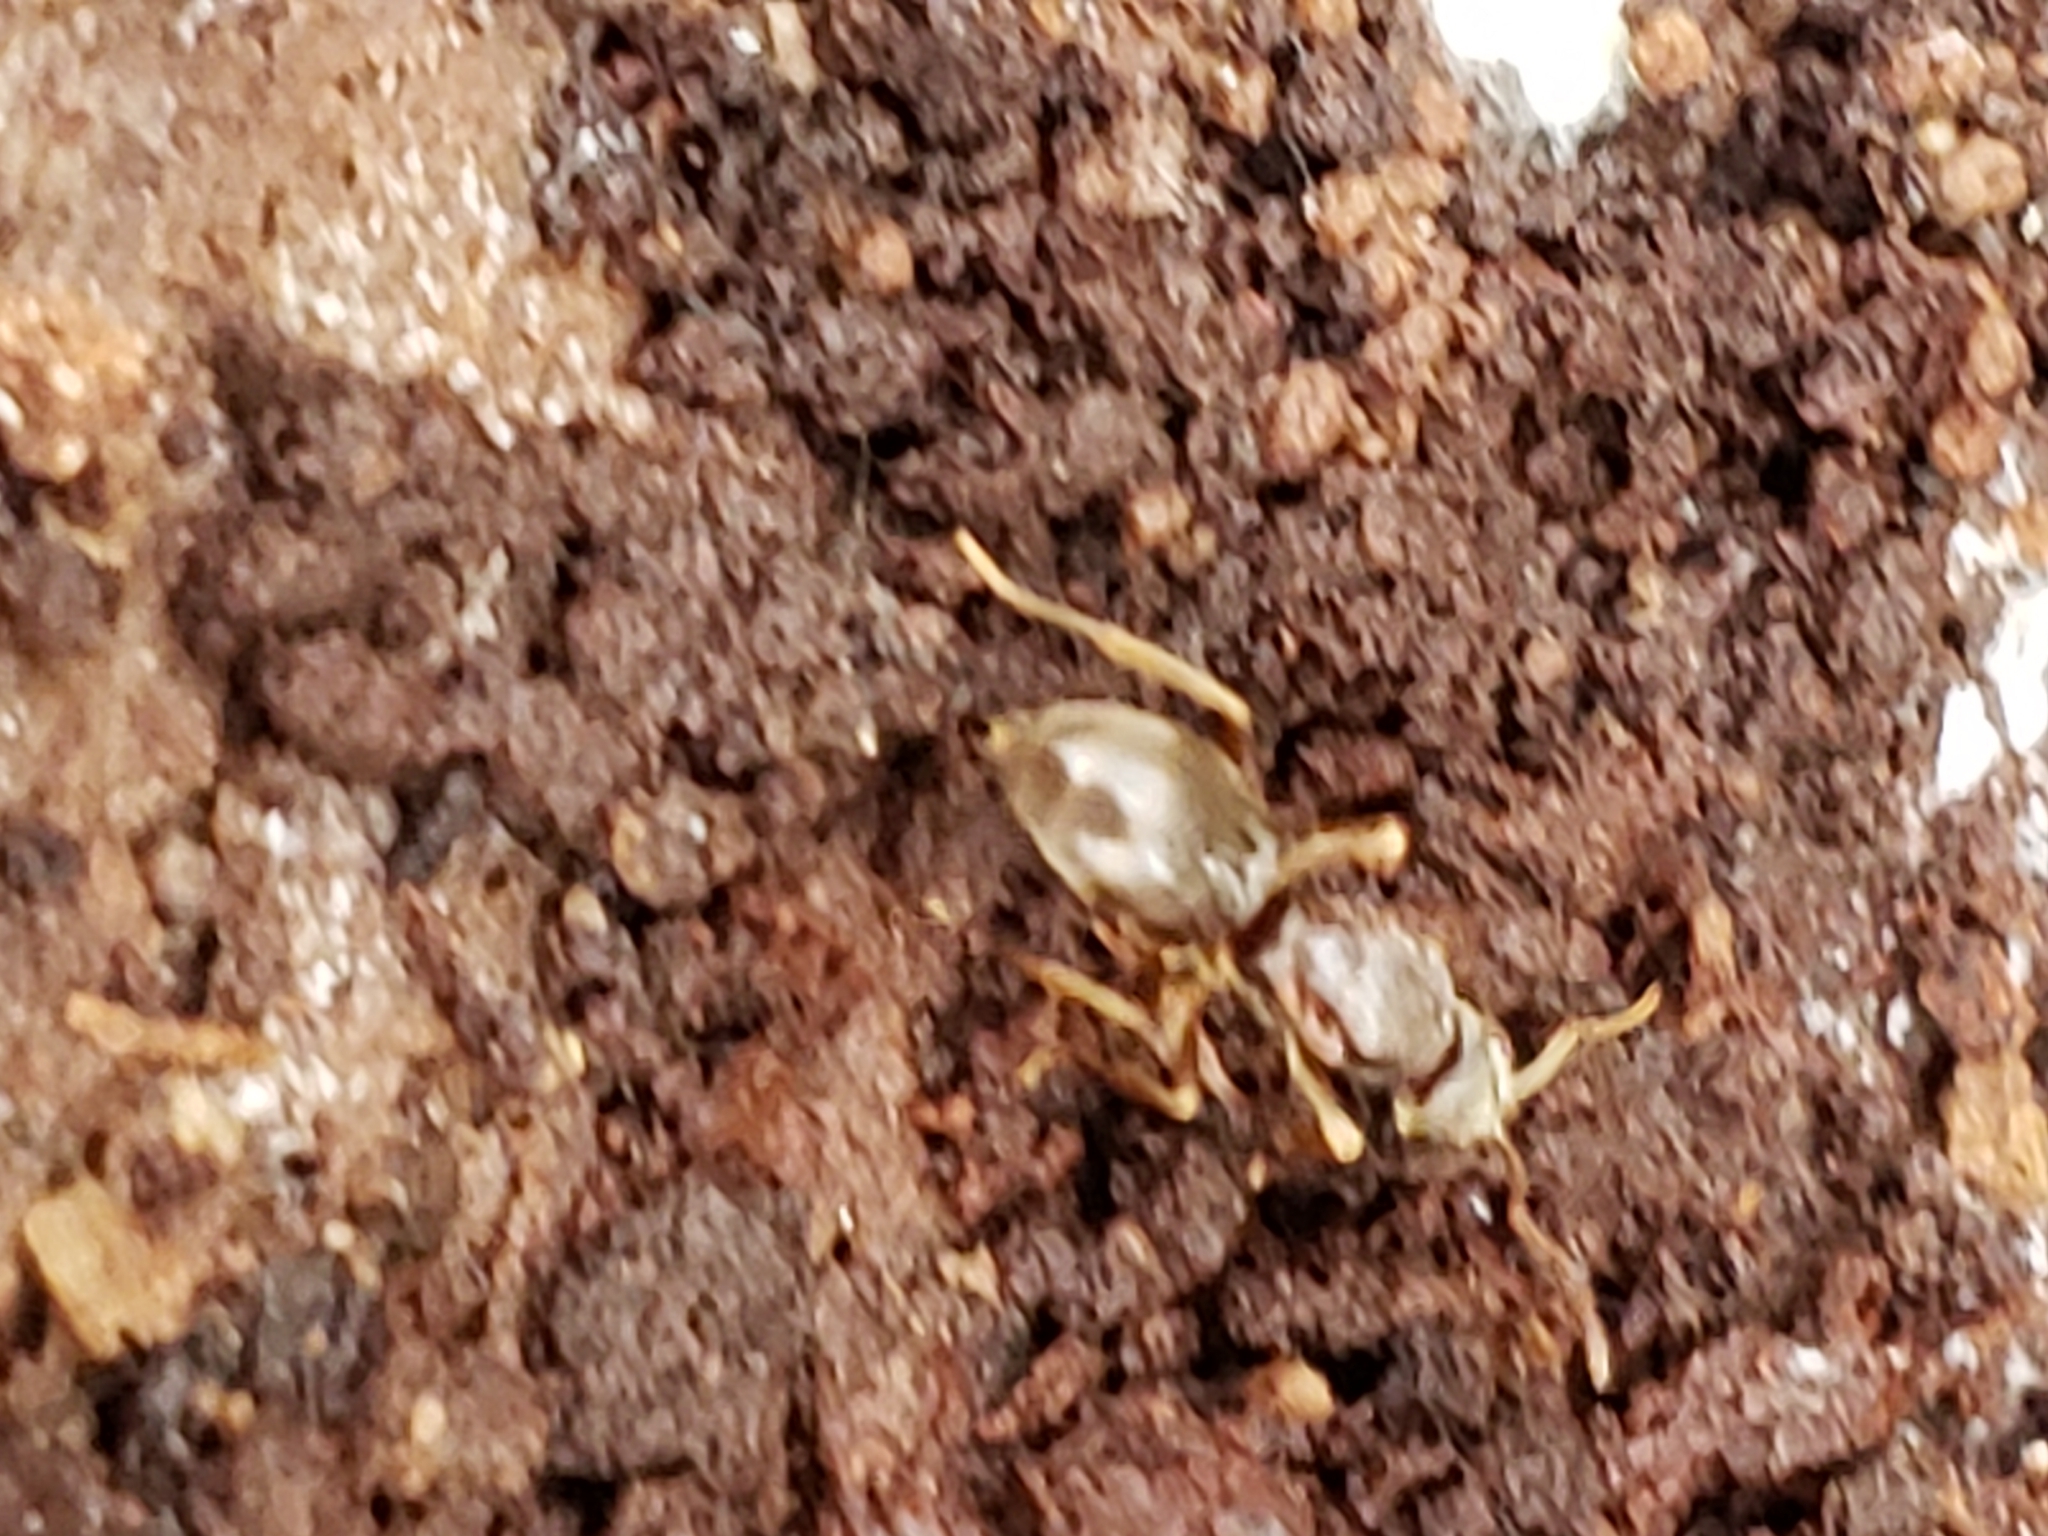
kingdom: Animalia
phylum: Arthropoda
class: Insecta
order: Hymenoptera
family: Formicidae
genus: Lasius
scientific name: Lasius aphidicola
